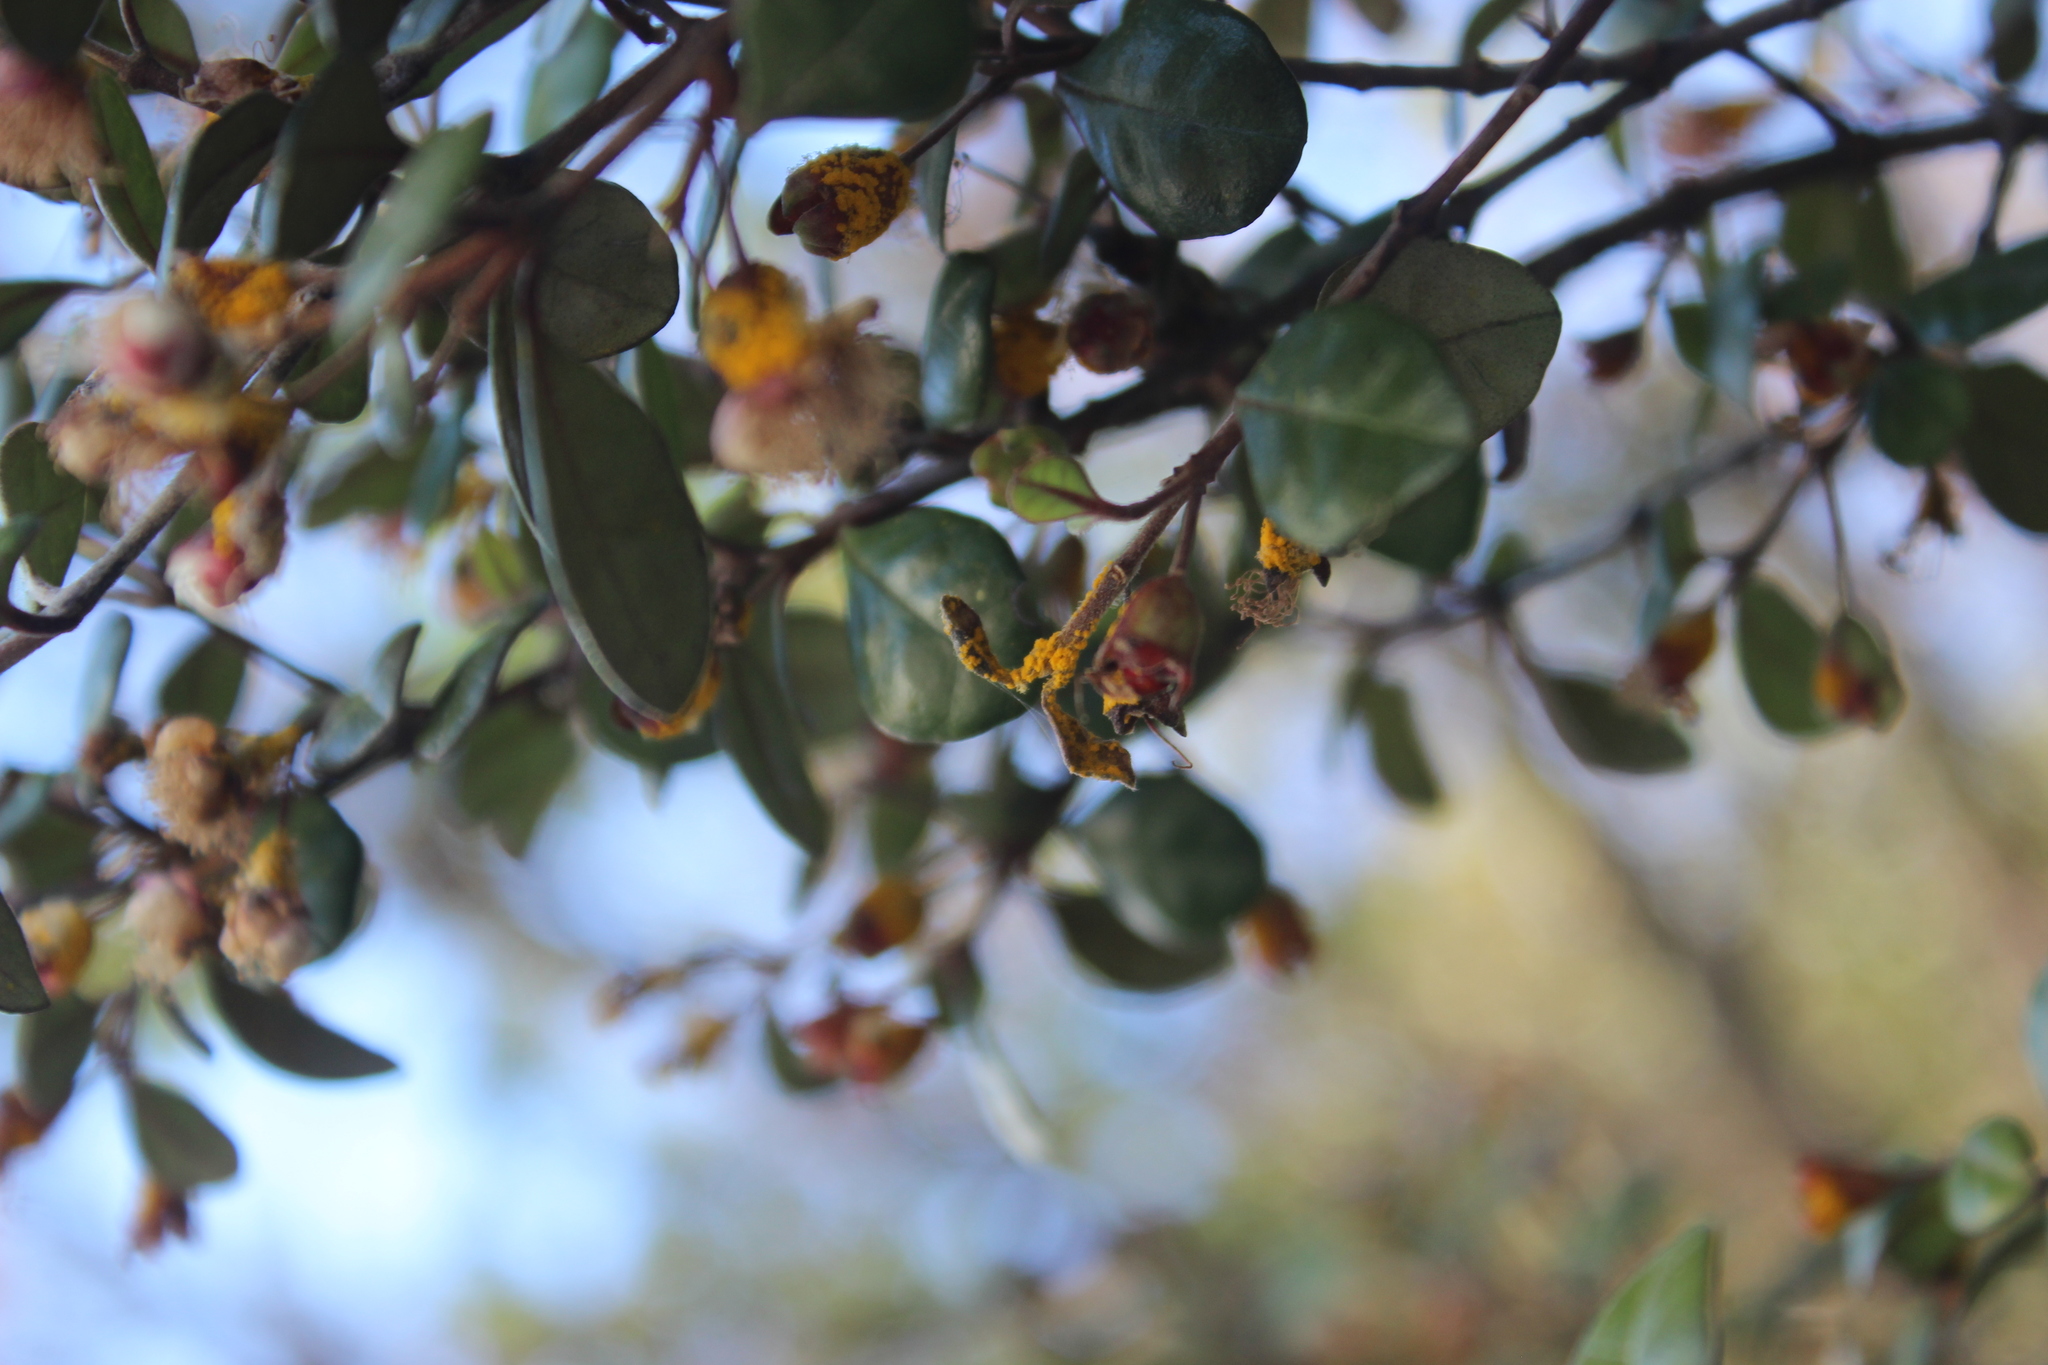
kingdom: Fungi
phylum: Basidiomycota
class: Pucciniomycetes
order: Pucciniales
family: Sphaerophragmiaceae
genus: Austropuccinia
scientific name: Austropuccinia psidii
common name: Myrtle rust
